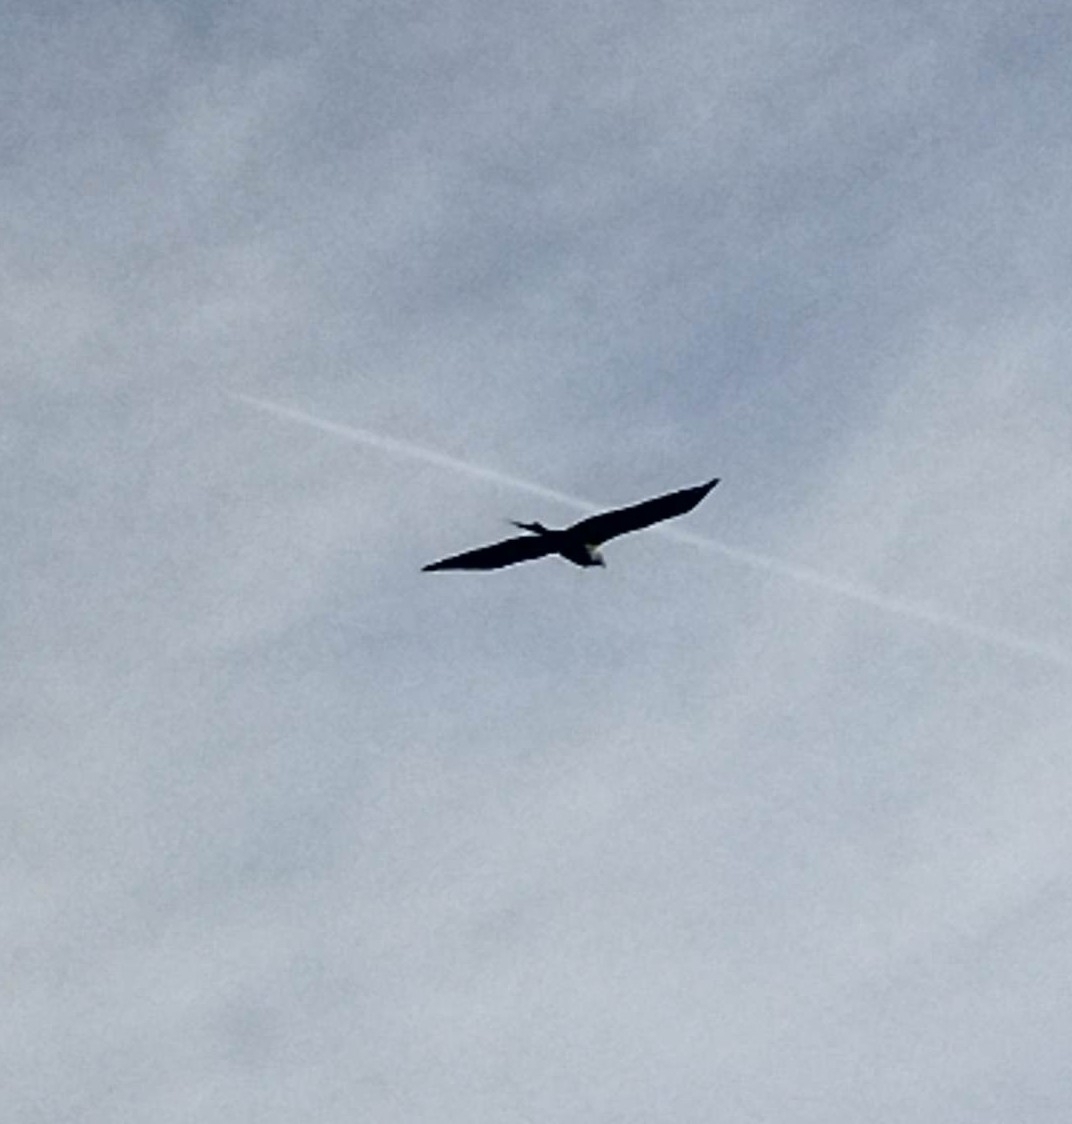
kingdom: Animalia
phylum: Chordata
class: Aves
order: Accipitriformes
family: Accipitridae
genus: Milvus
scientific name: Milvus milvus
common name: Red kite
